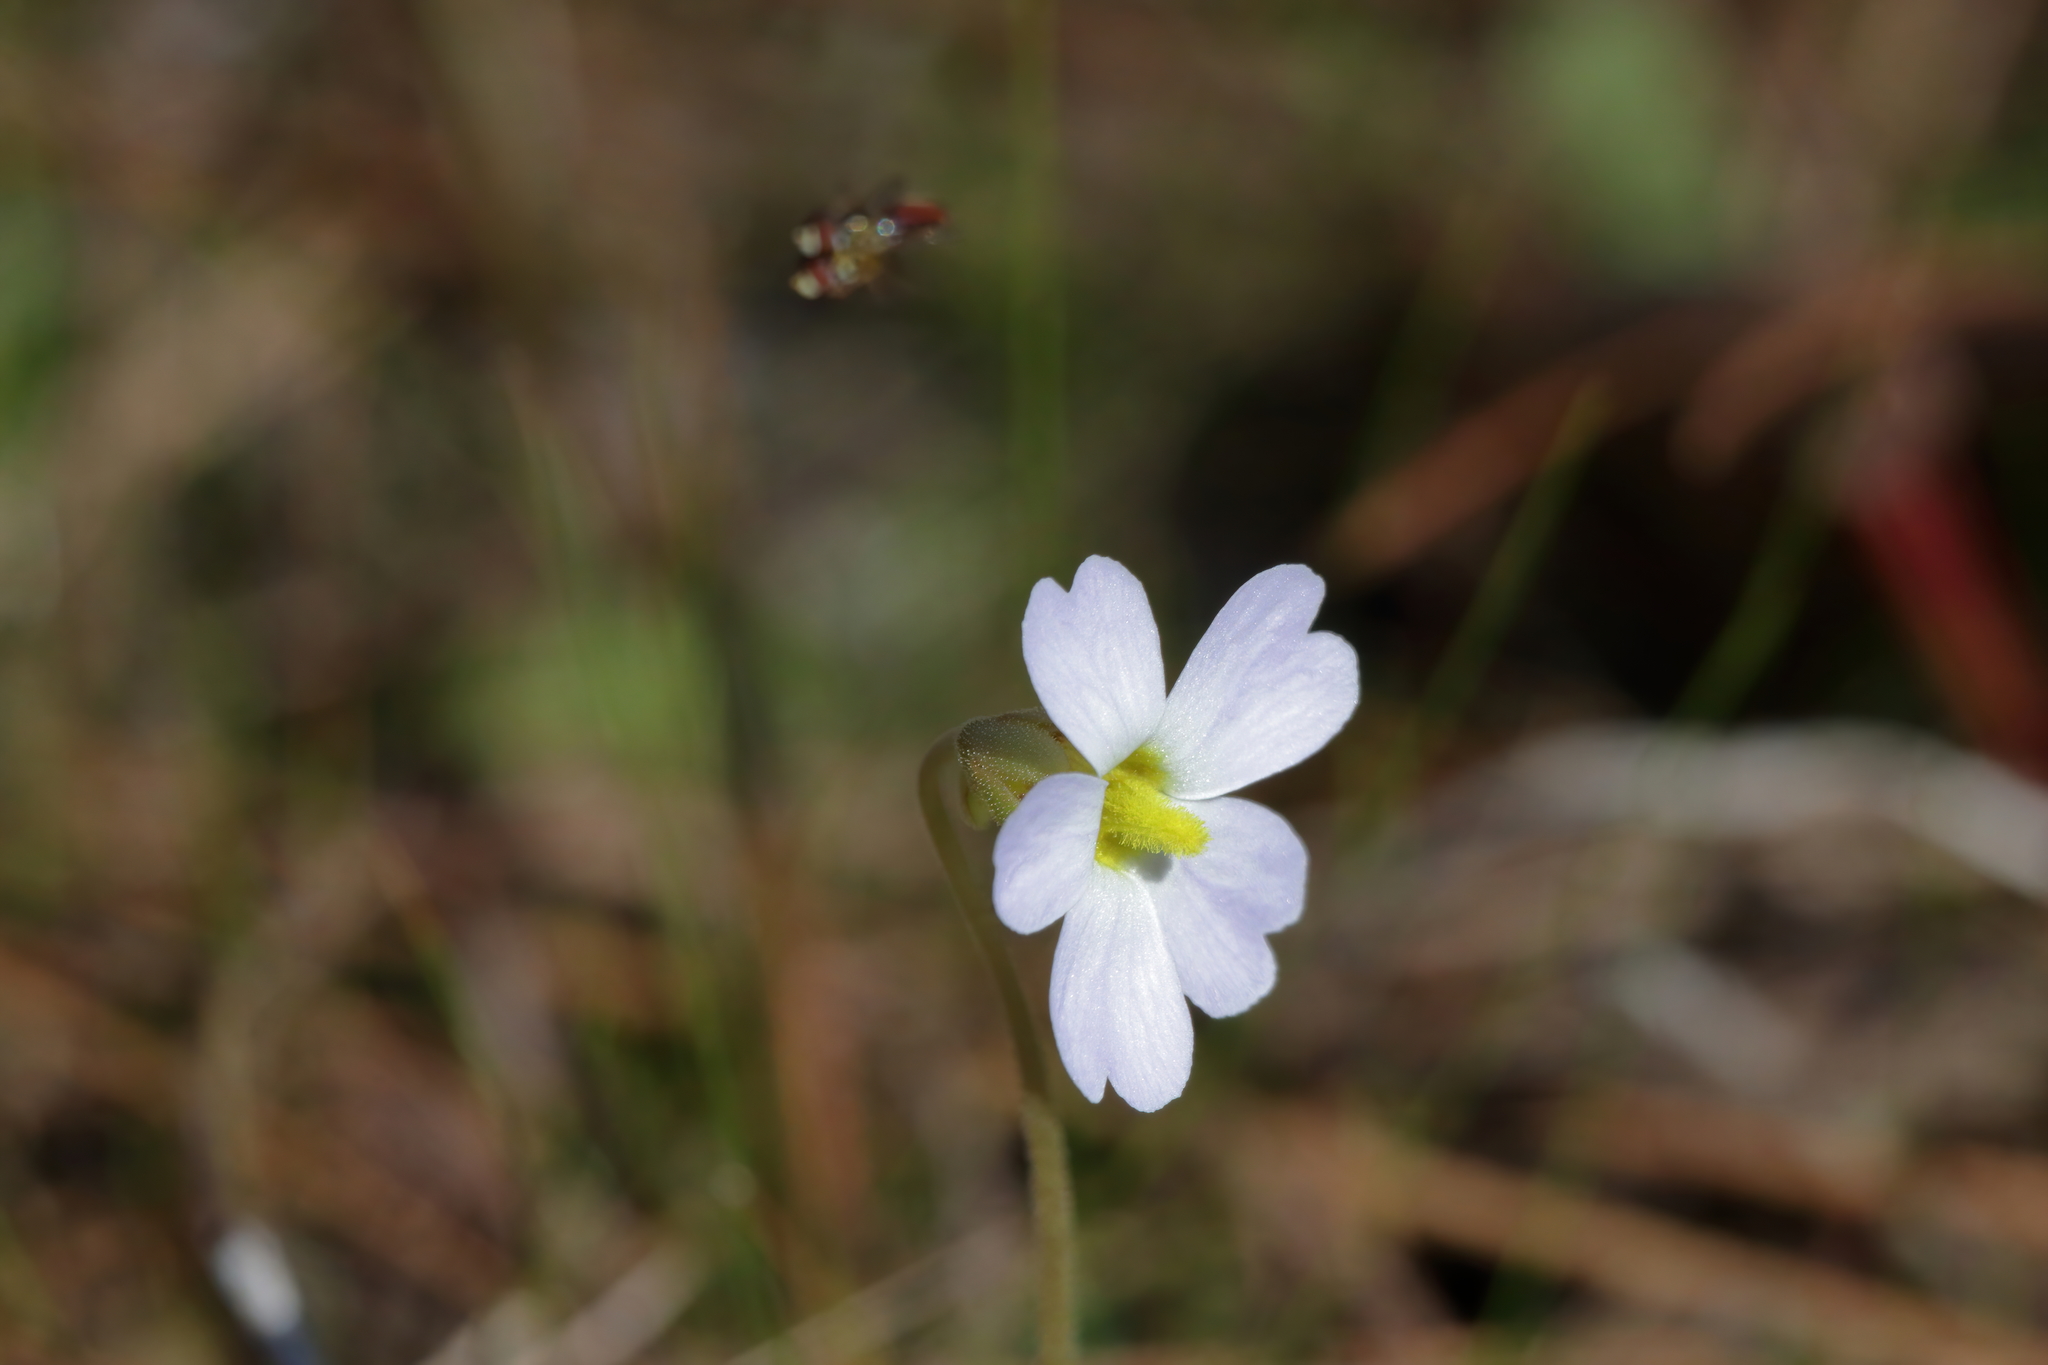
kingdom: Plantae
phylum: Tracheophyta
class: Magnoliopsida
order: Lamiales
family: Lentibulariaceae
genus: Pinguicula
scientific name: Pinguicula primuliflora
